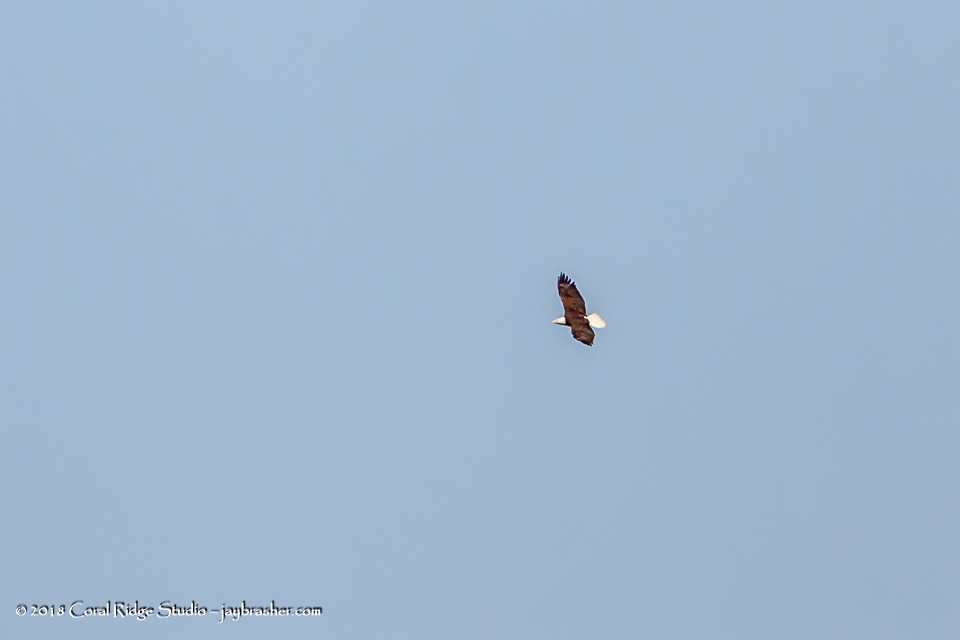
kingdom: Animalia
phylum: Chordata
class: Aves
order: Accipitriformes
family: Accipitridae
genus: Haliaeetus
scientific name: Haliaeetus leucocephalus
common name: Bald eagle
